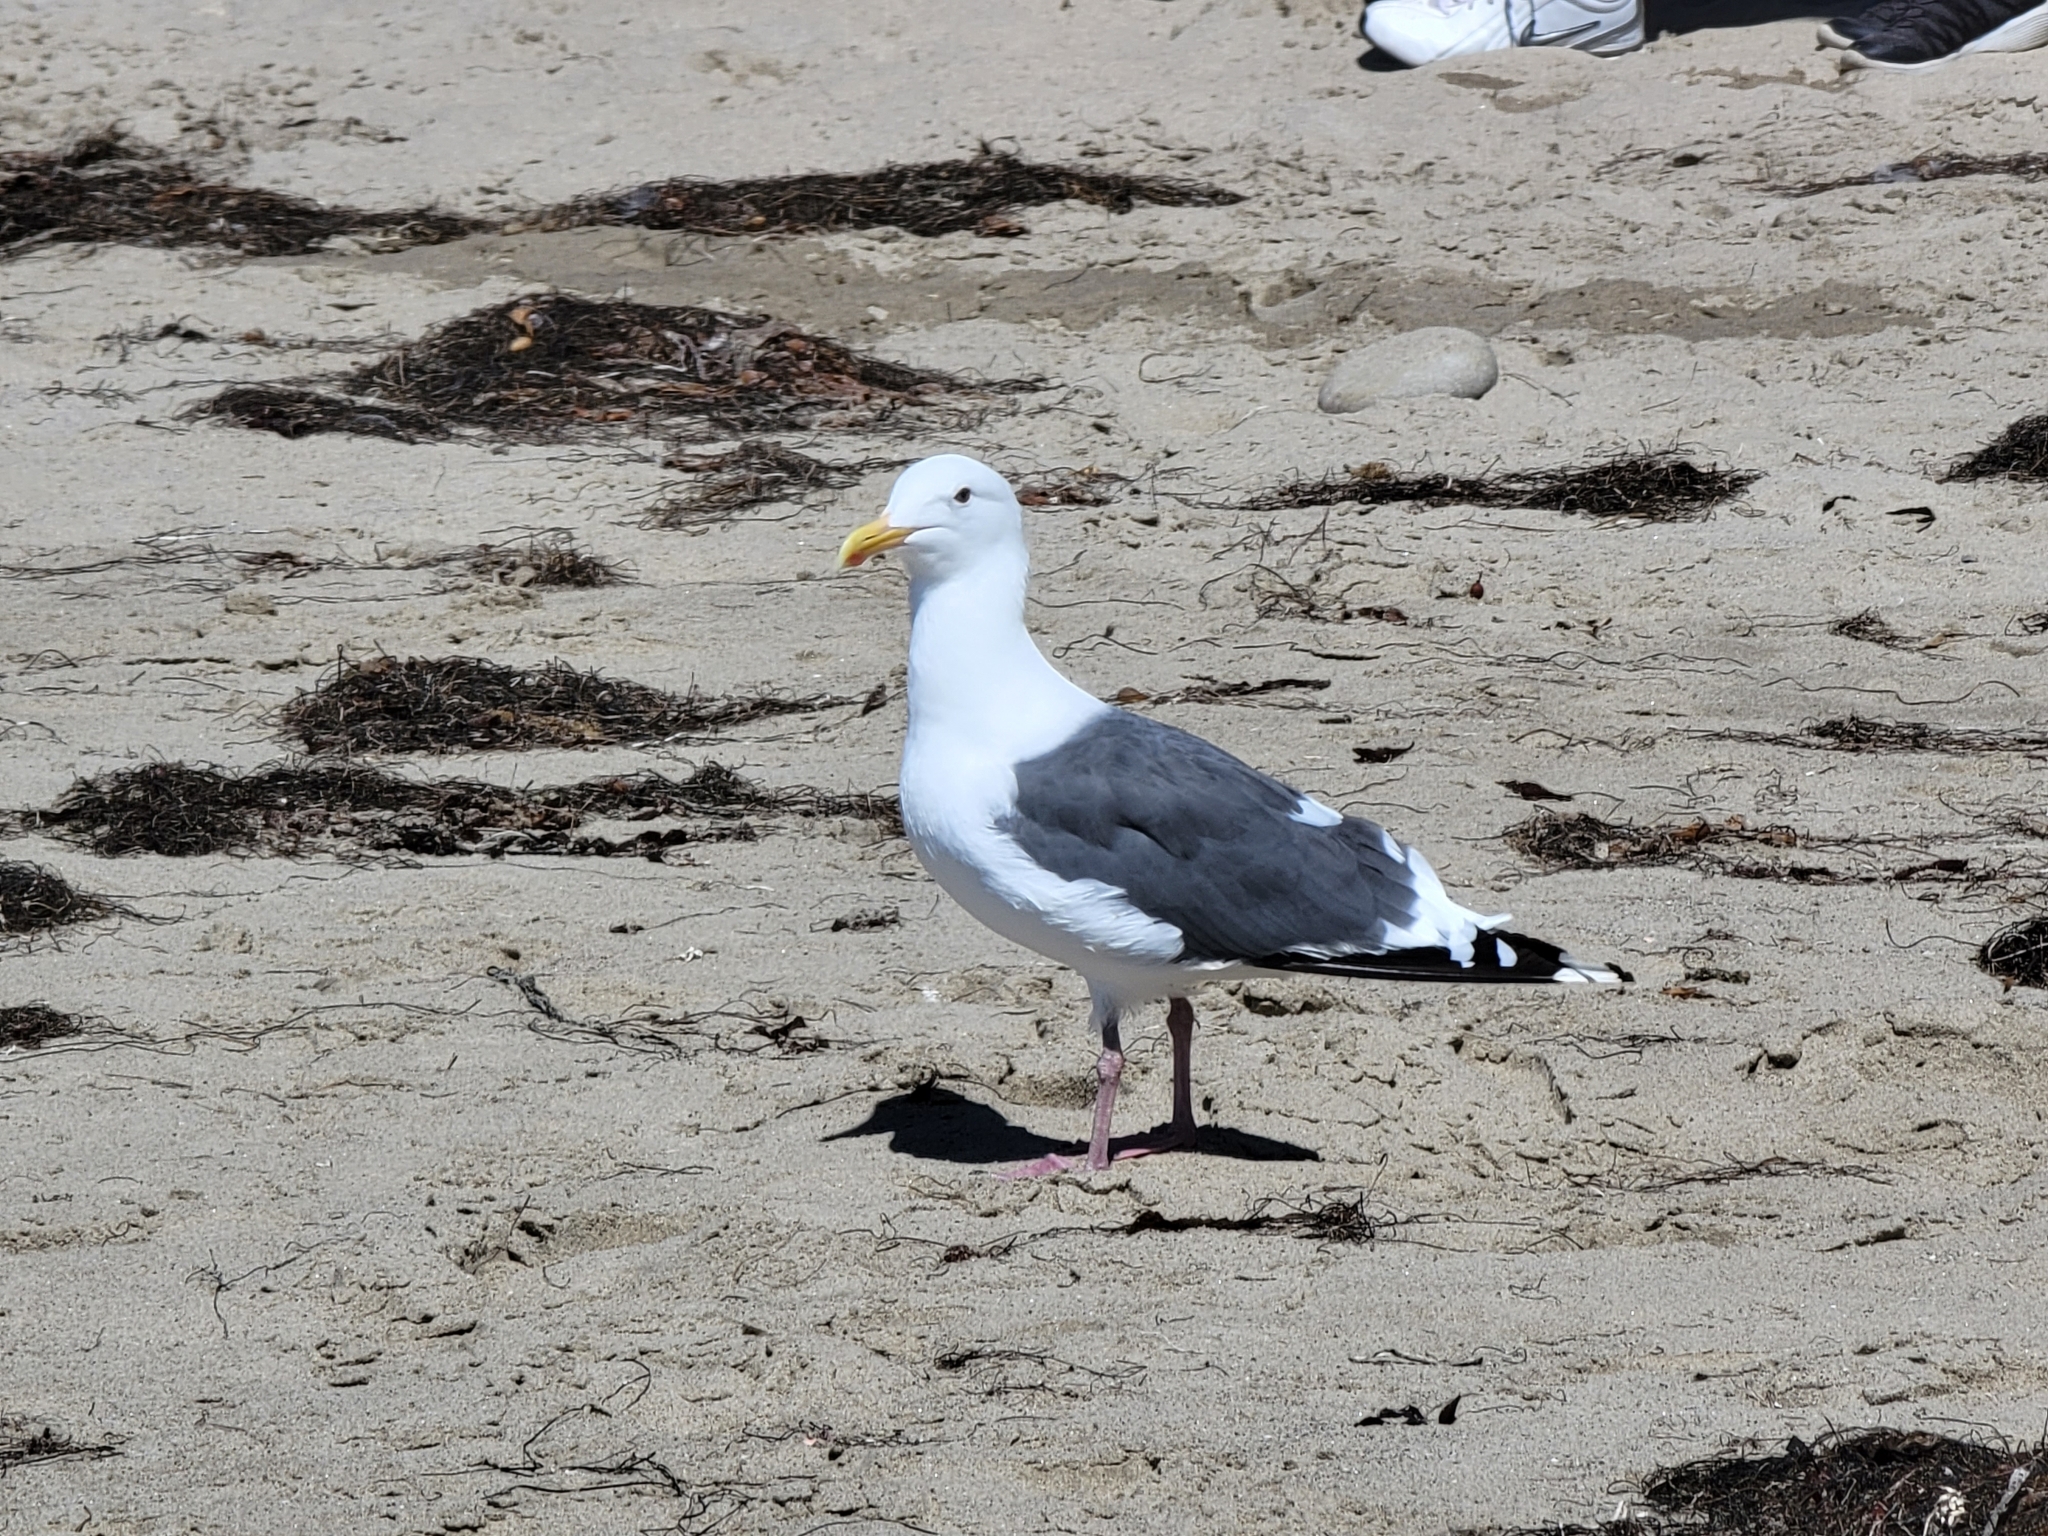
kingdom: Animalia
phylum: Chordata
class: Aves
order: Charadriiformes
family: Laridae
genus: Larus
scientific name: Larus occidentalis
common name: Western gull
